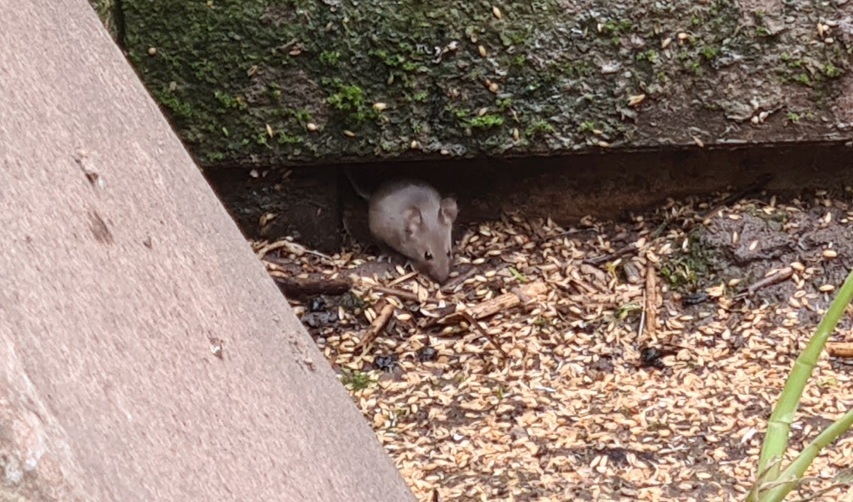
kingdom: Animalia
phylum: Chordata
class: Mammalia
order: Rodentia
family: Muridae
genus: Mus
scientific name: Mus musculus
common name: House mouse
